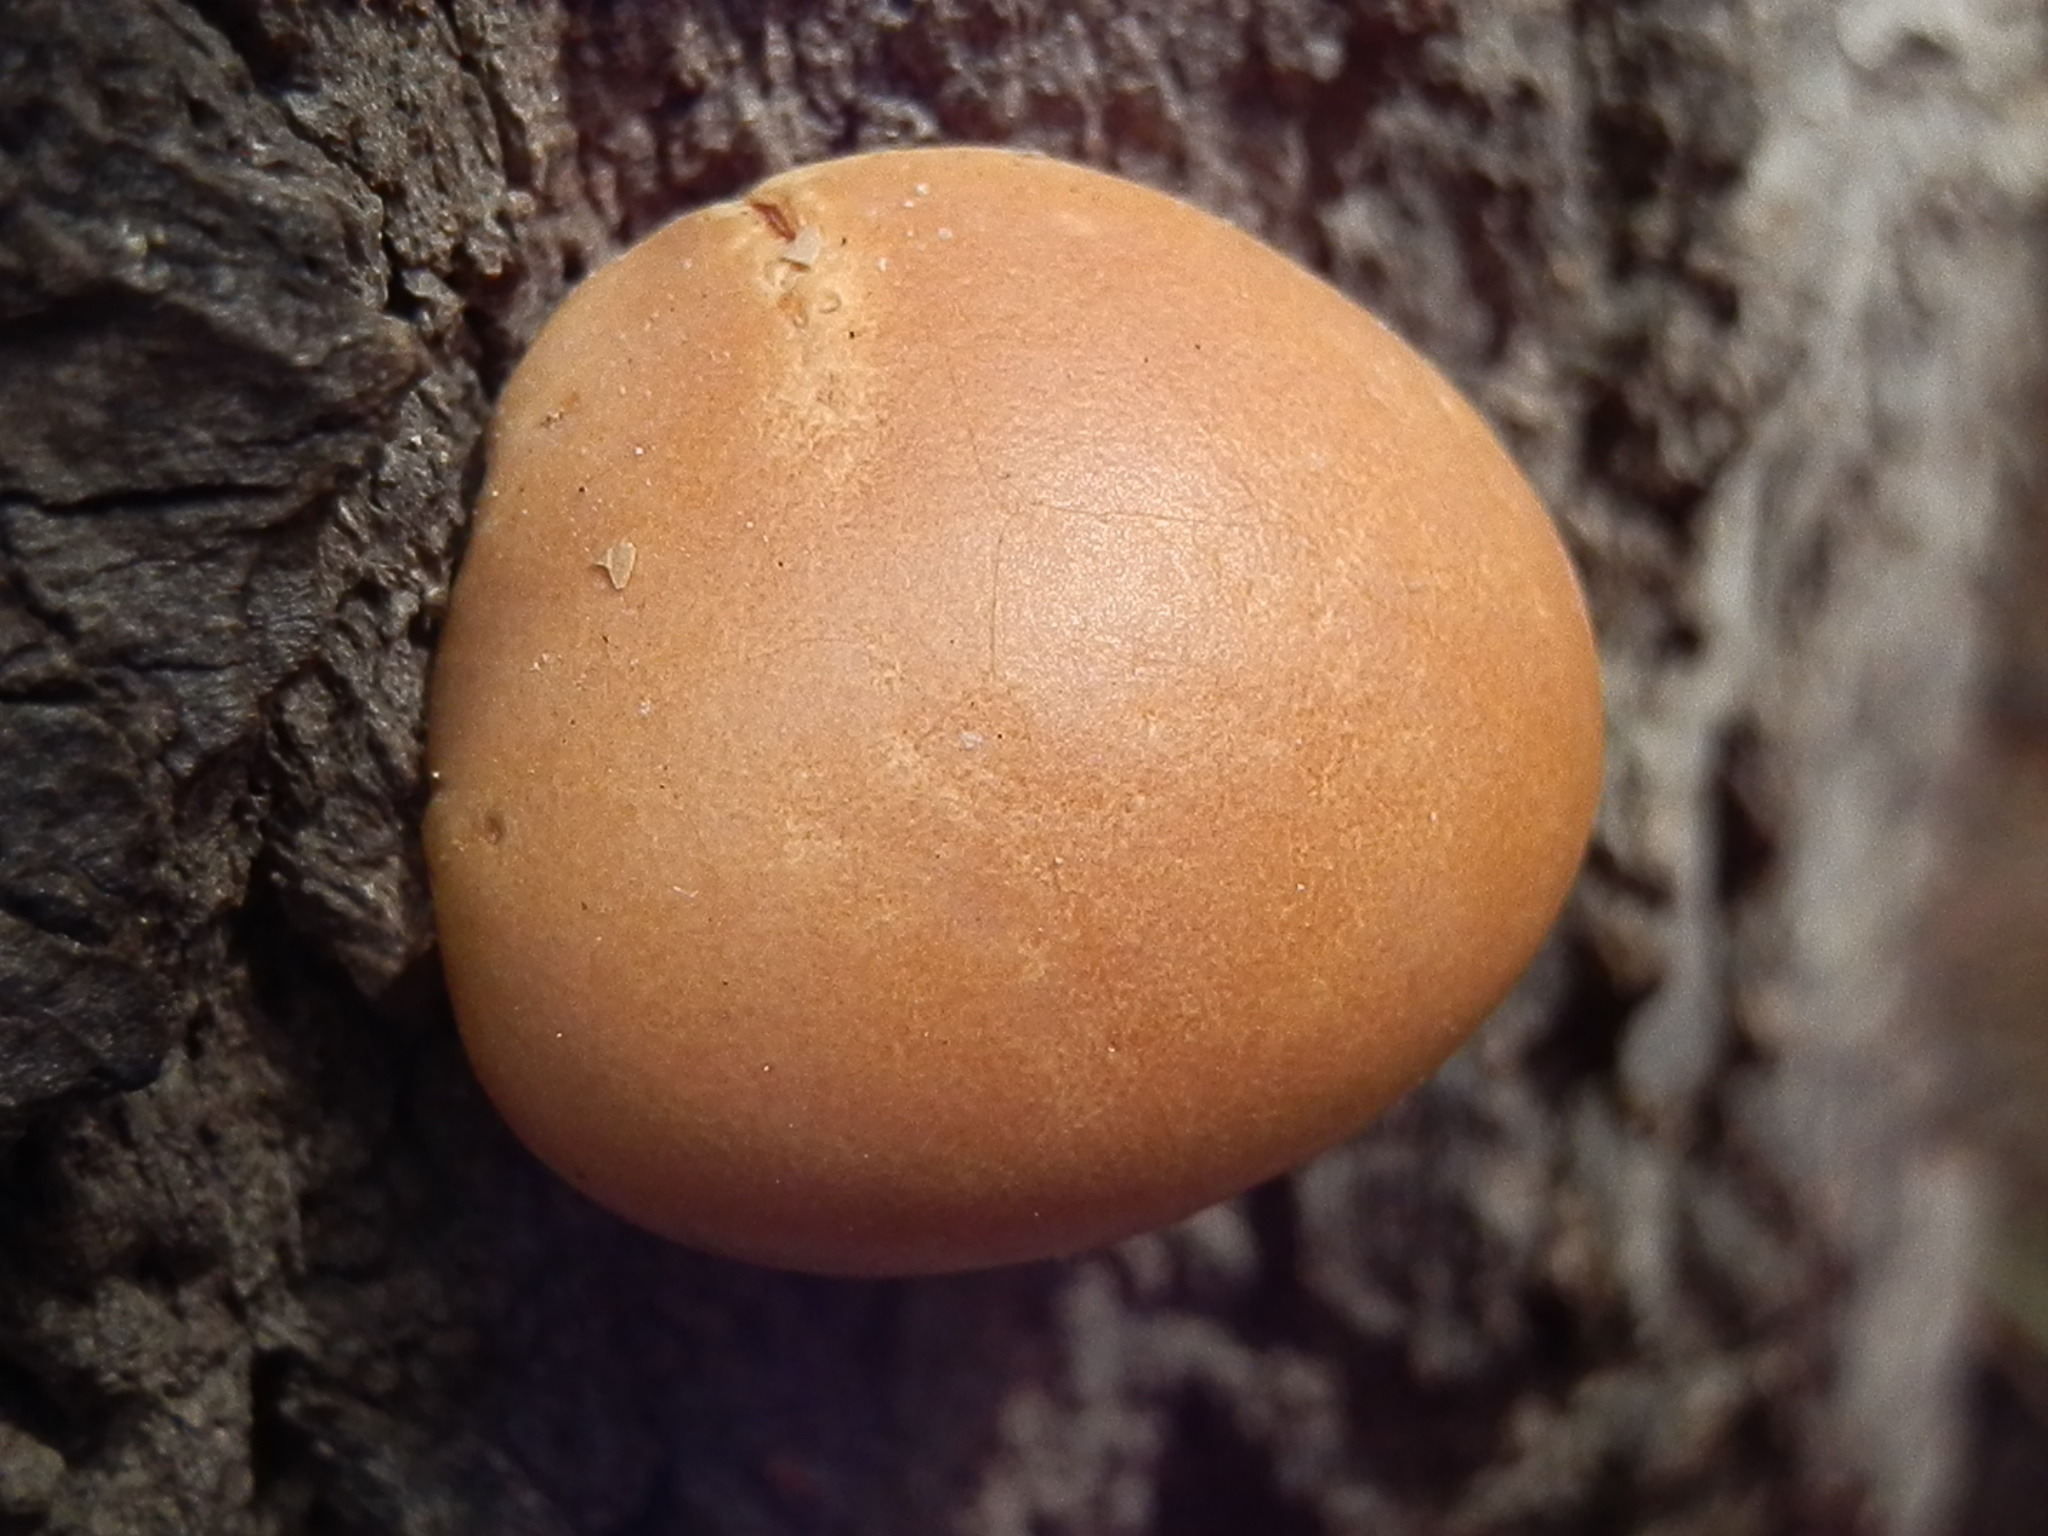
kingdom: Fungi
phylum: Basidiomycota
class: Agaricomycetes
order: Polyporales
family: Polyporaceae
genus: Cryptoporus
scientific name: Cryptoporus volvatus
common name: Veiled polypore
